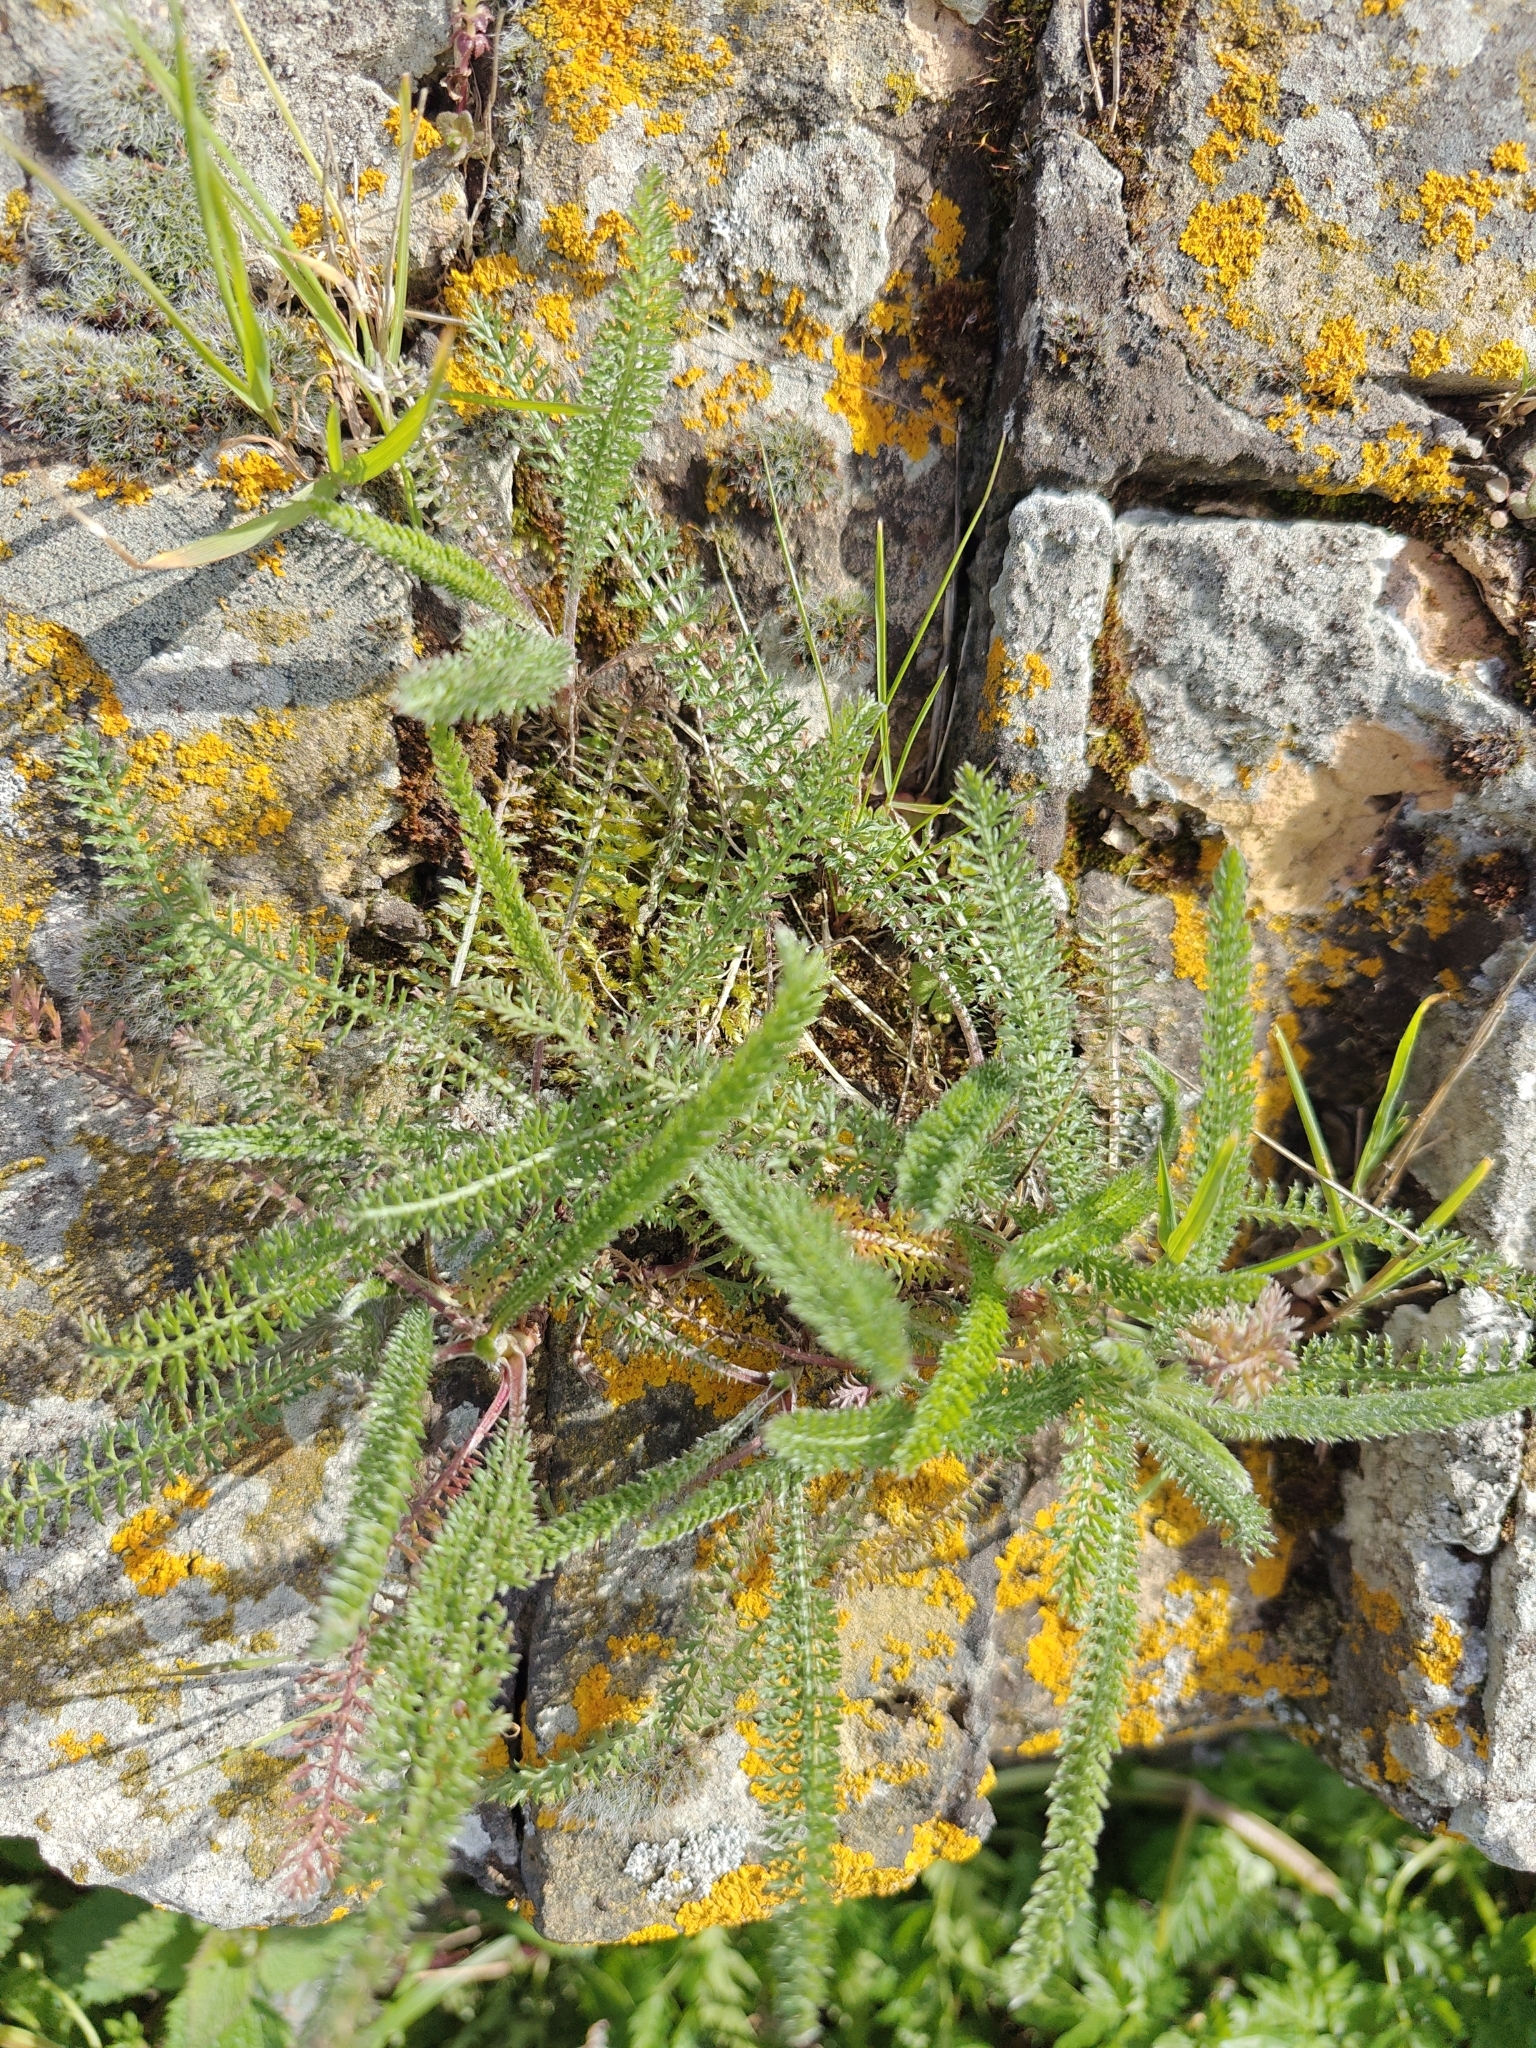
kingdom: Plantae
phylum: Tracheophyta
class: Magnoliopsida
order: Asterales
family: Asteraceae
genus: Achillea
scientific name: Achillea millefolium
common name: Yarrow
